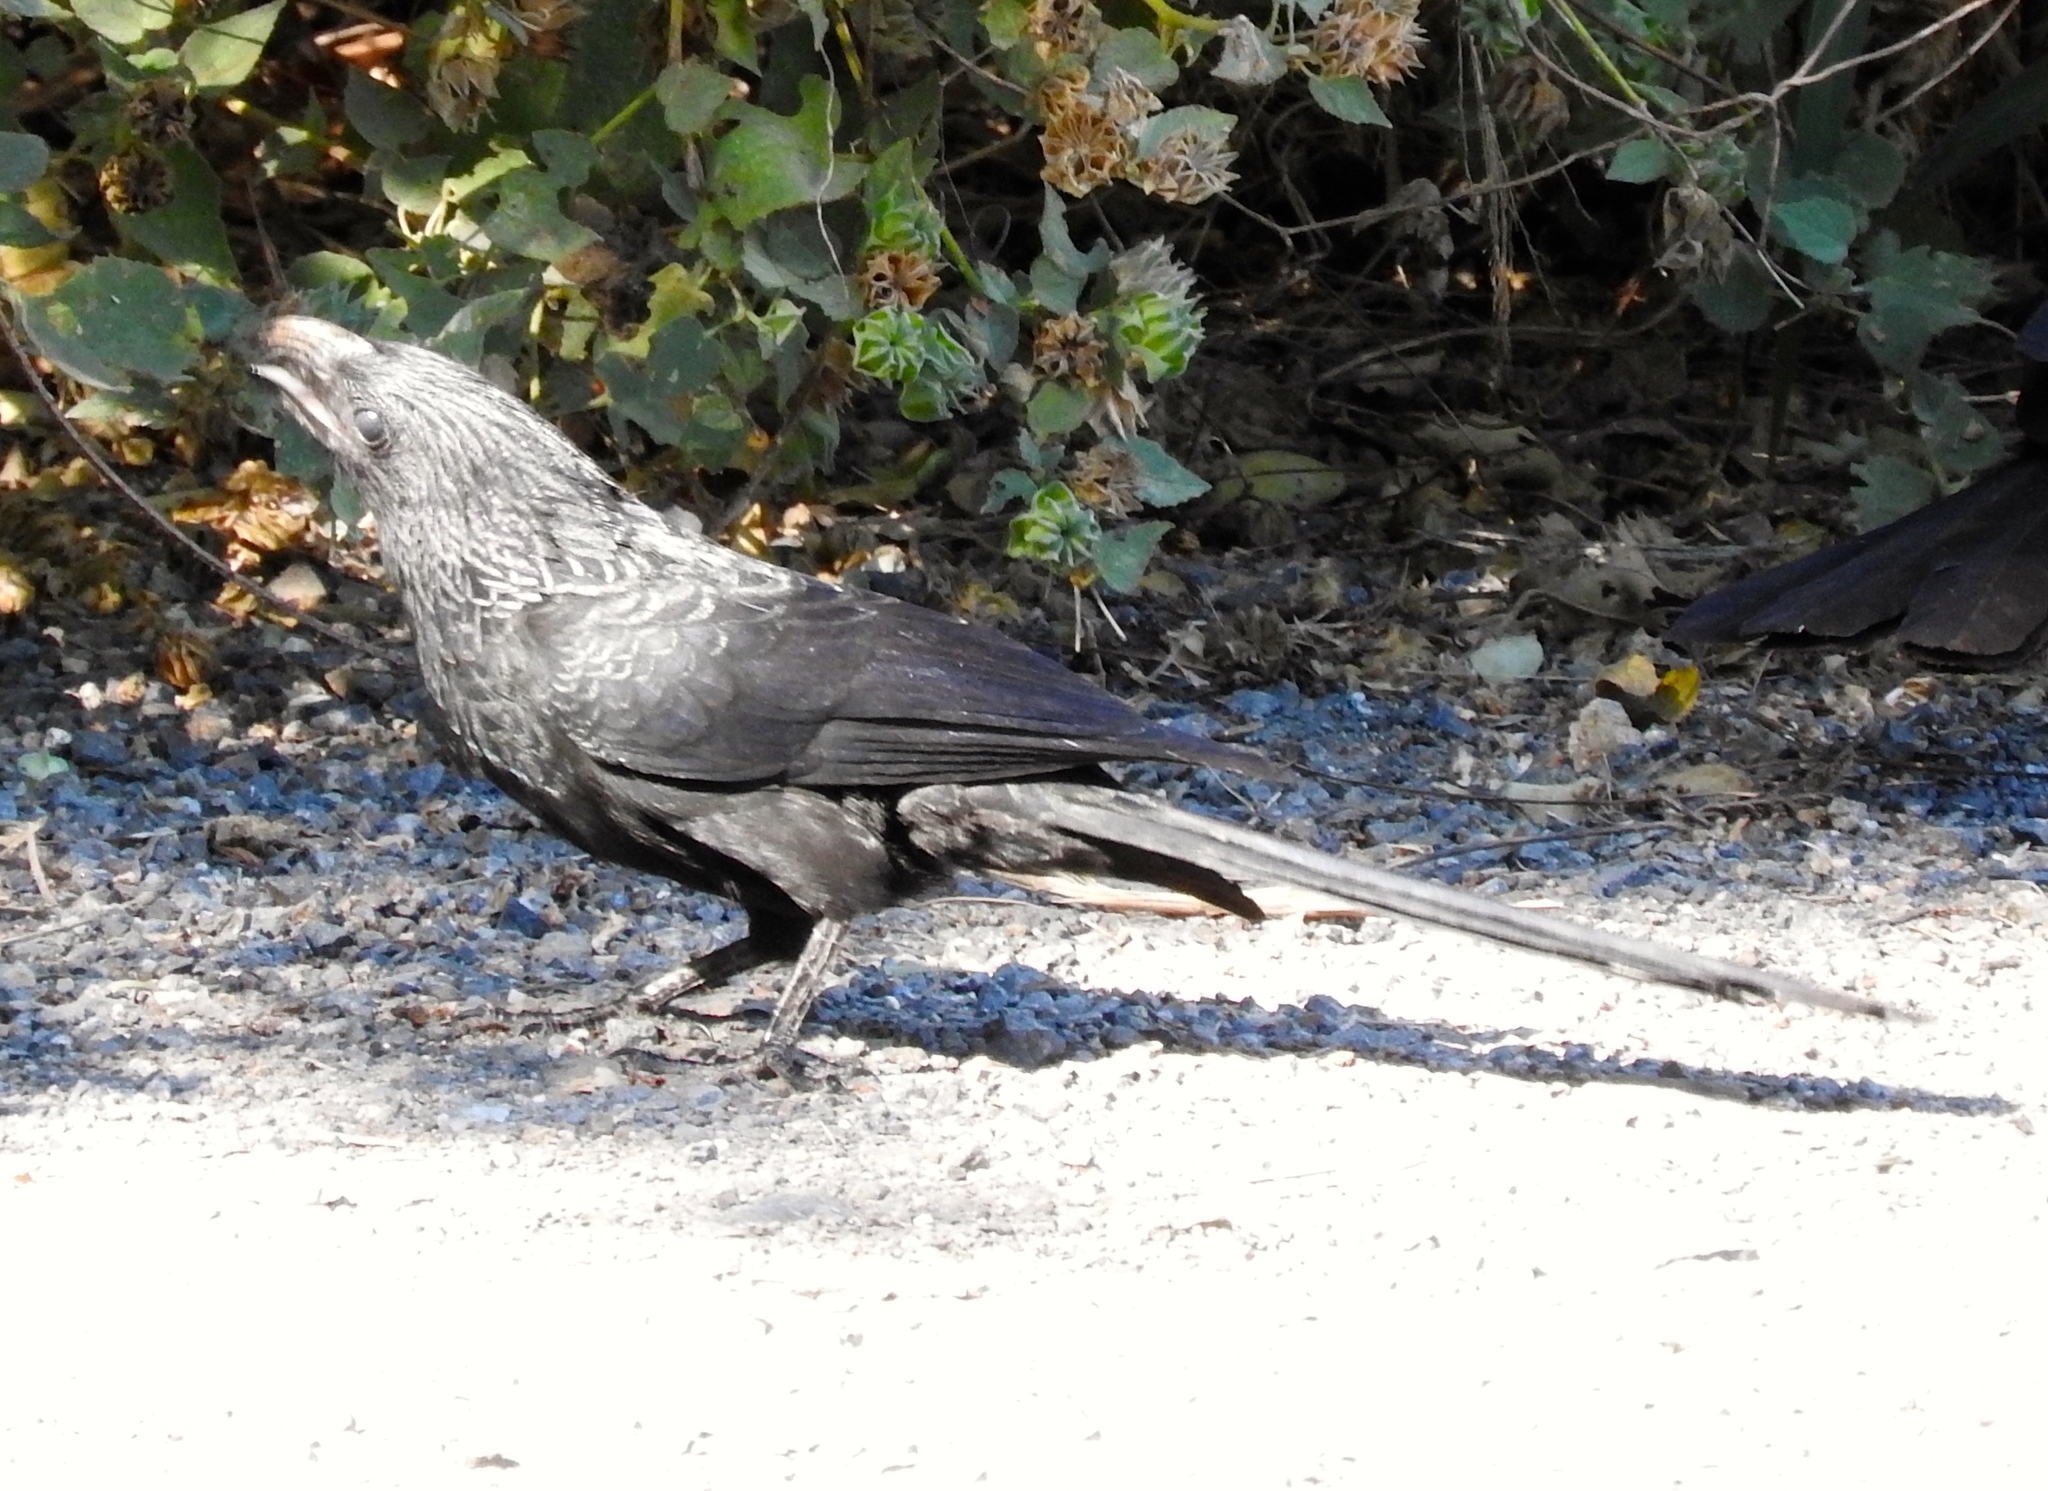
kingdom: Animalia
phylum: Chordata
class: Aves
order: Cuculiformes
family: Cuculidae
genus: Crotophaga
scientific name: Crotophaga sulcirostris
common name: Groove-billed ani
